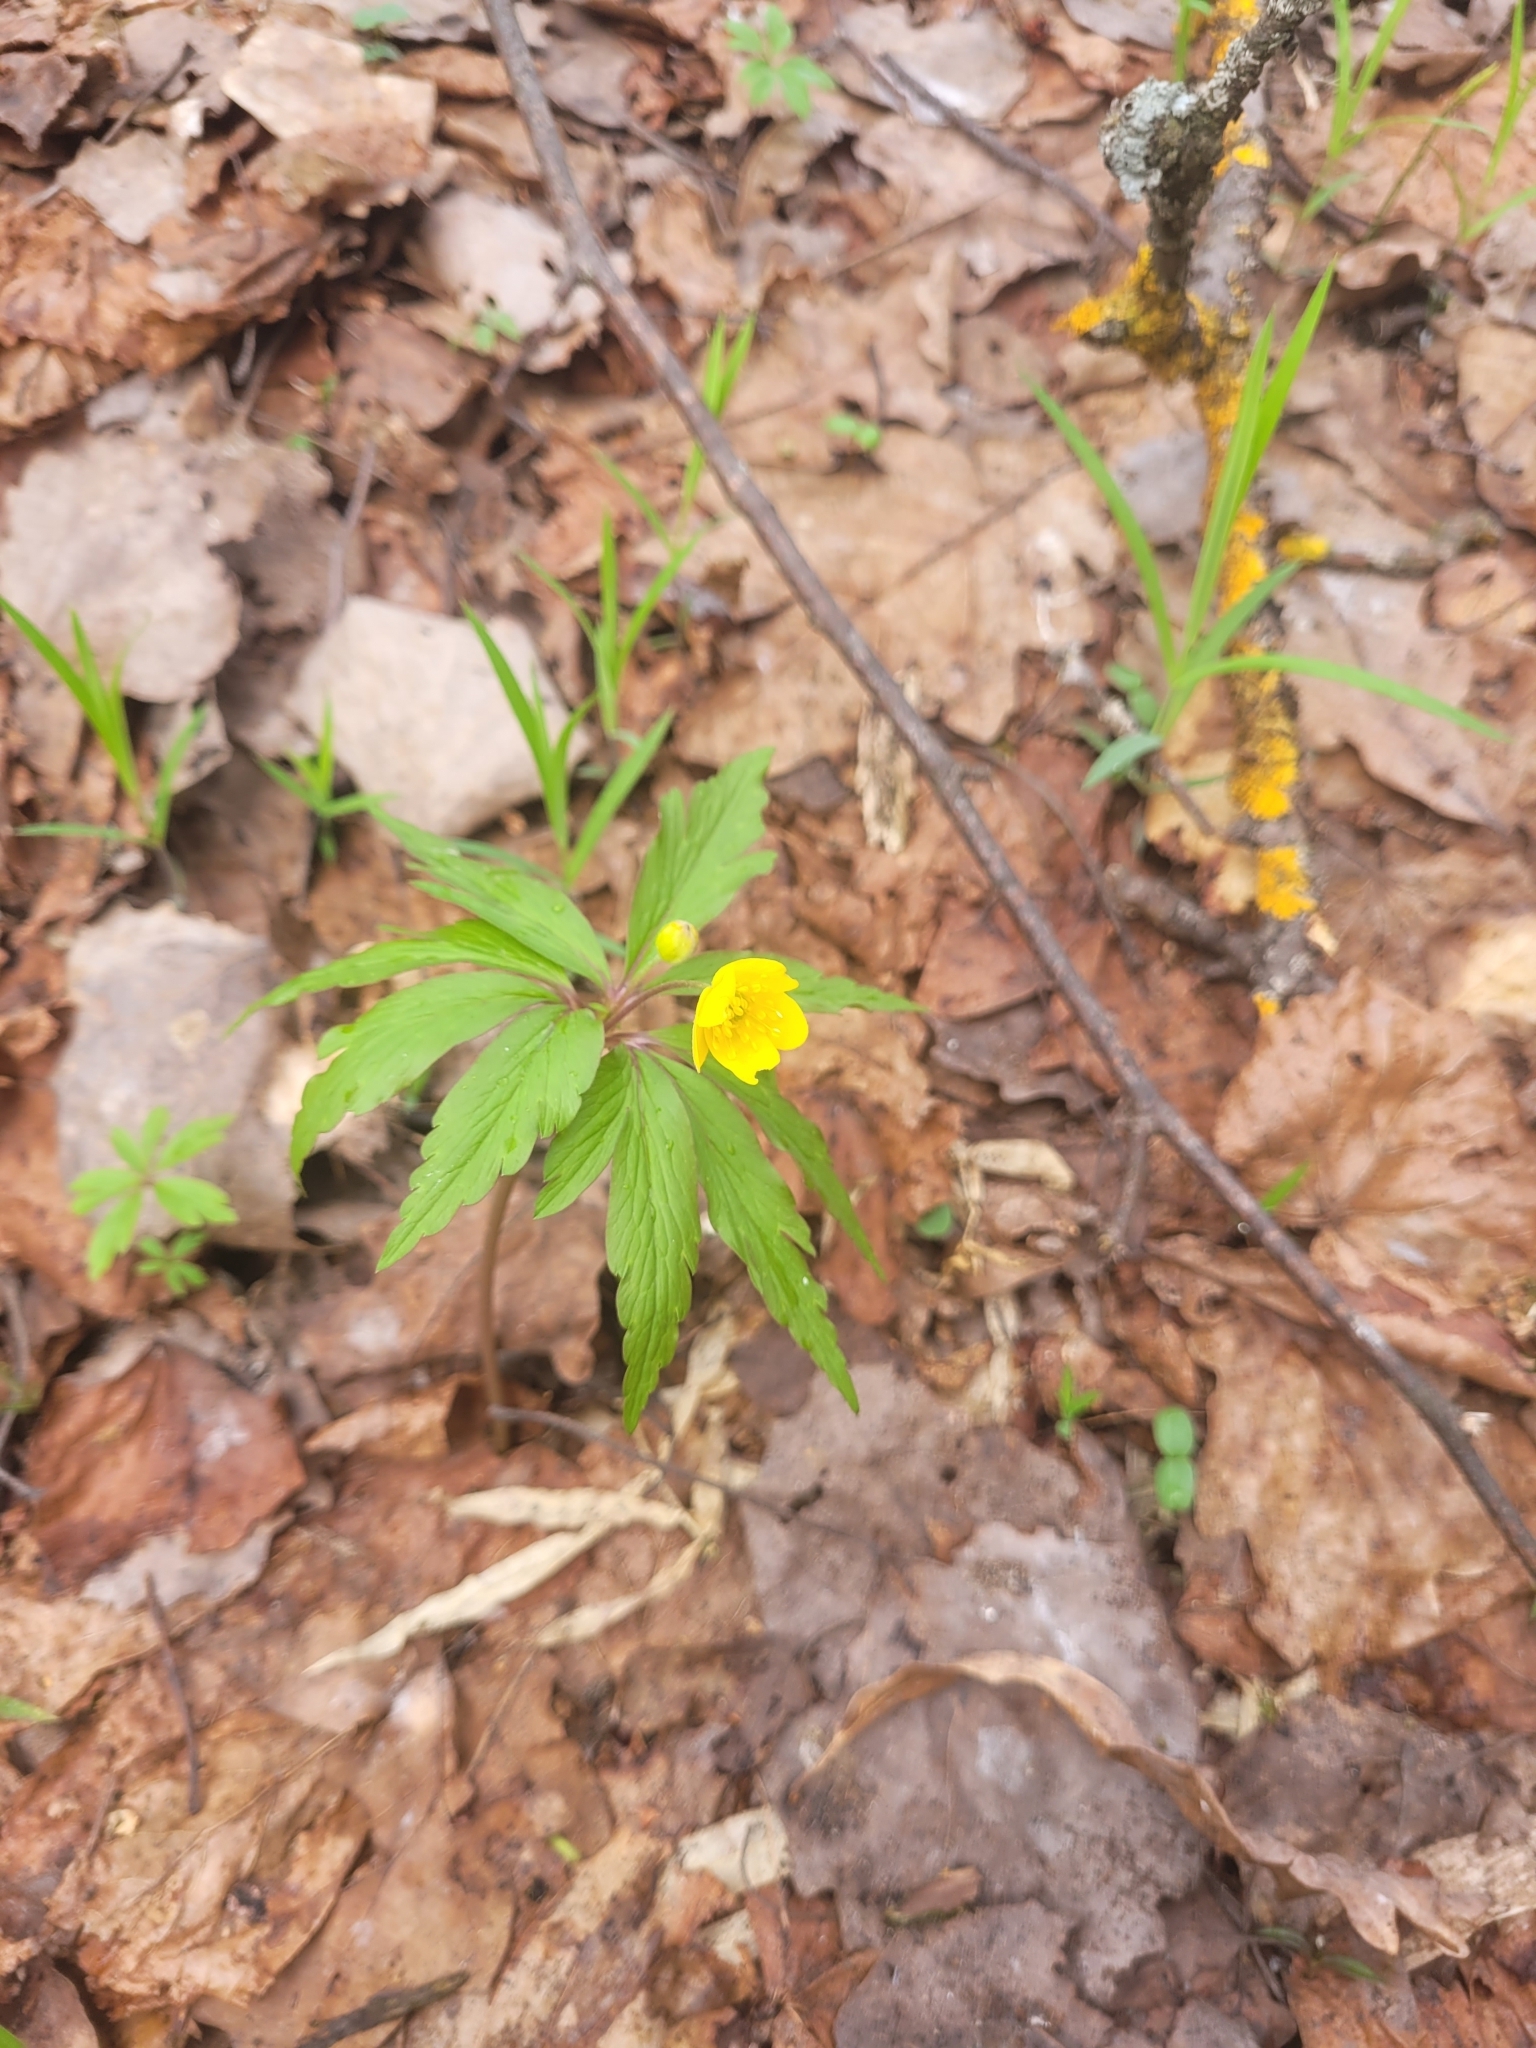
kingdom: Plantae
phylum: Tracheophyta
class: Magnoliopsida
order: Ranunculales
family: Ranunculaceae
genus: Anemone
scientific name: Anemone ranunculoides
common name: Yellow anemone
